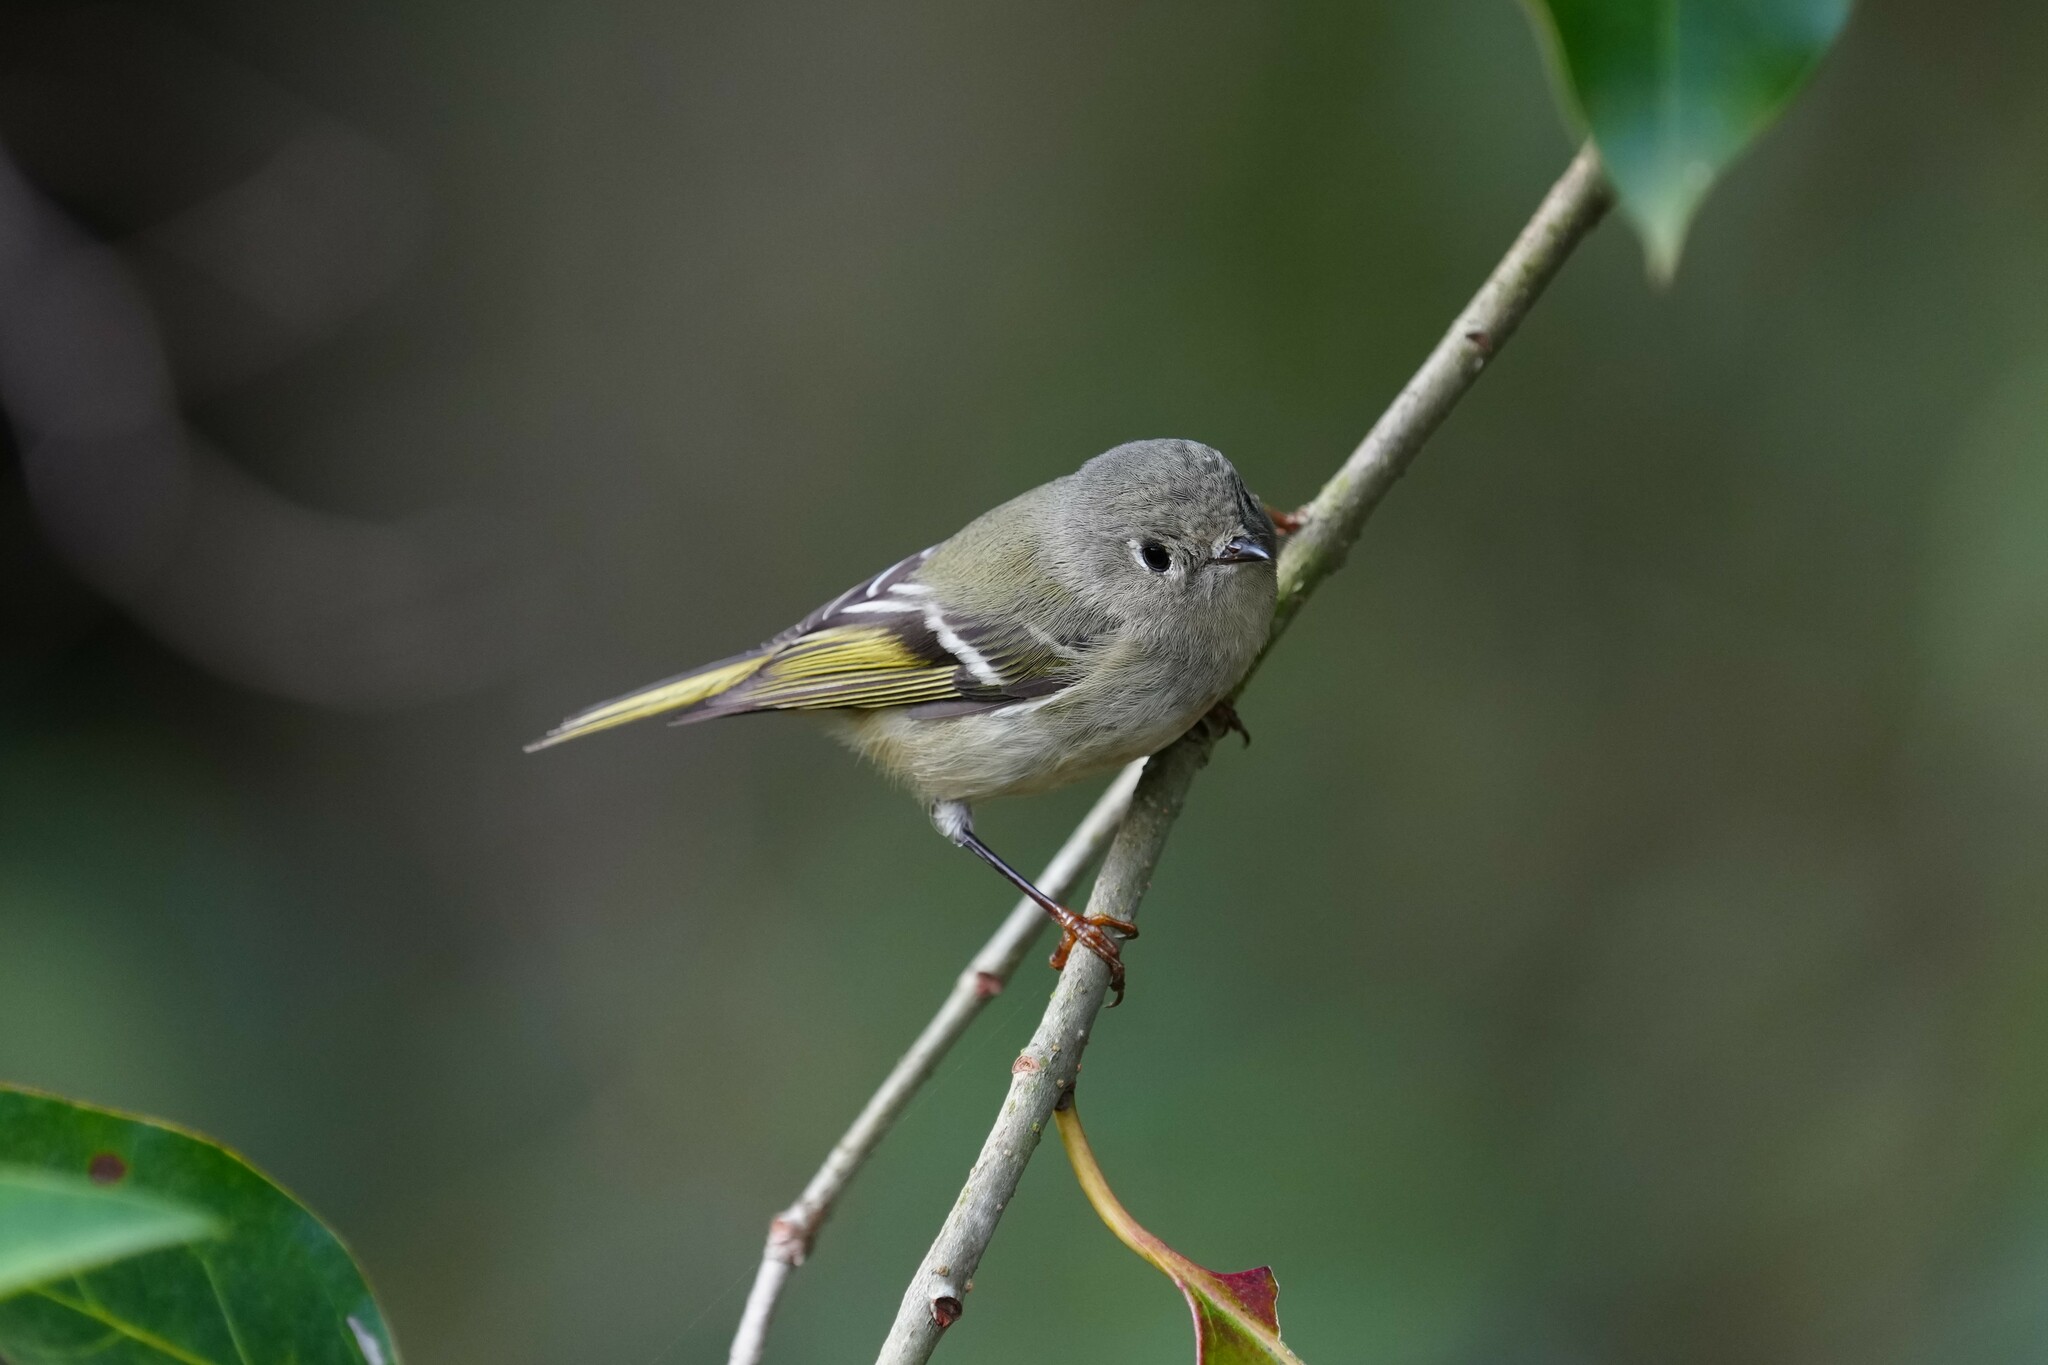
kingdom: Animalia
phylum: Chordata
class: Aves
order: Passeriformes
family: Regulidae
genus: Regulus
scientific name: Regulus calendula
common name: Ruby-crowned kinglet
